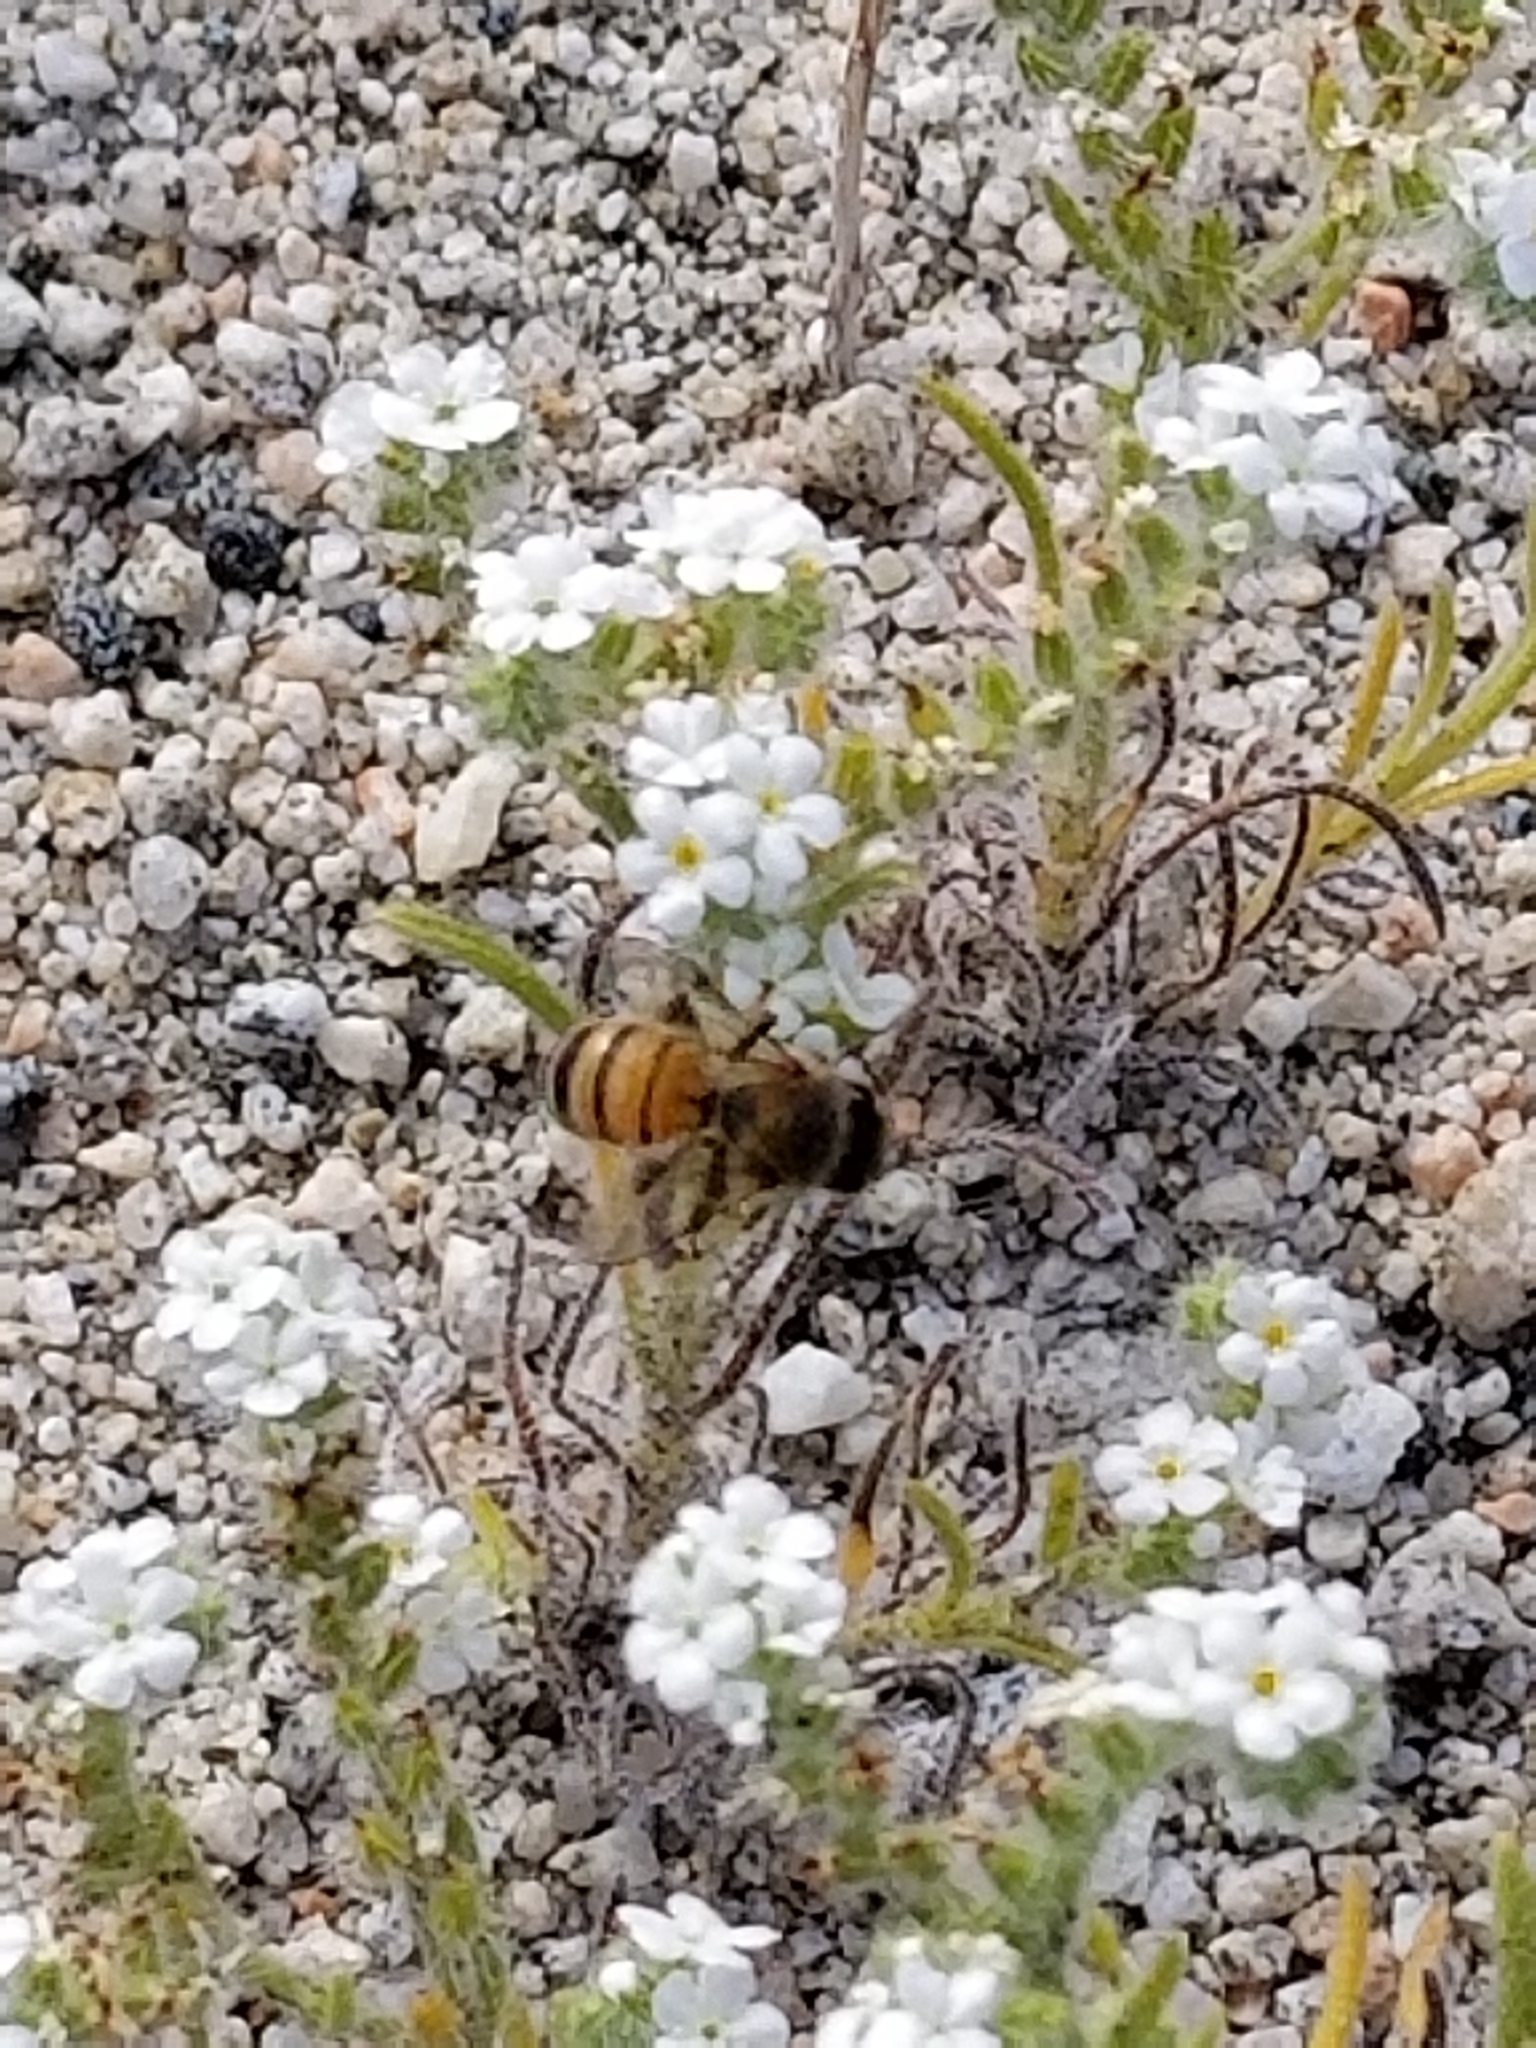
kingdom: Animalia
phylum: Arthropoda
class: Insecta
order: Hymenoptera
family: Apidae
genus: Apis
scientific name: Apis mellifera
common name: Honey bee
